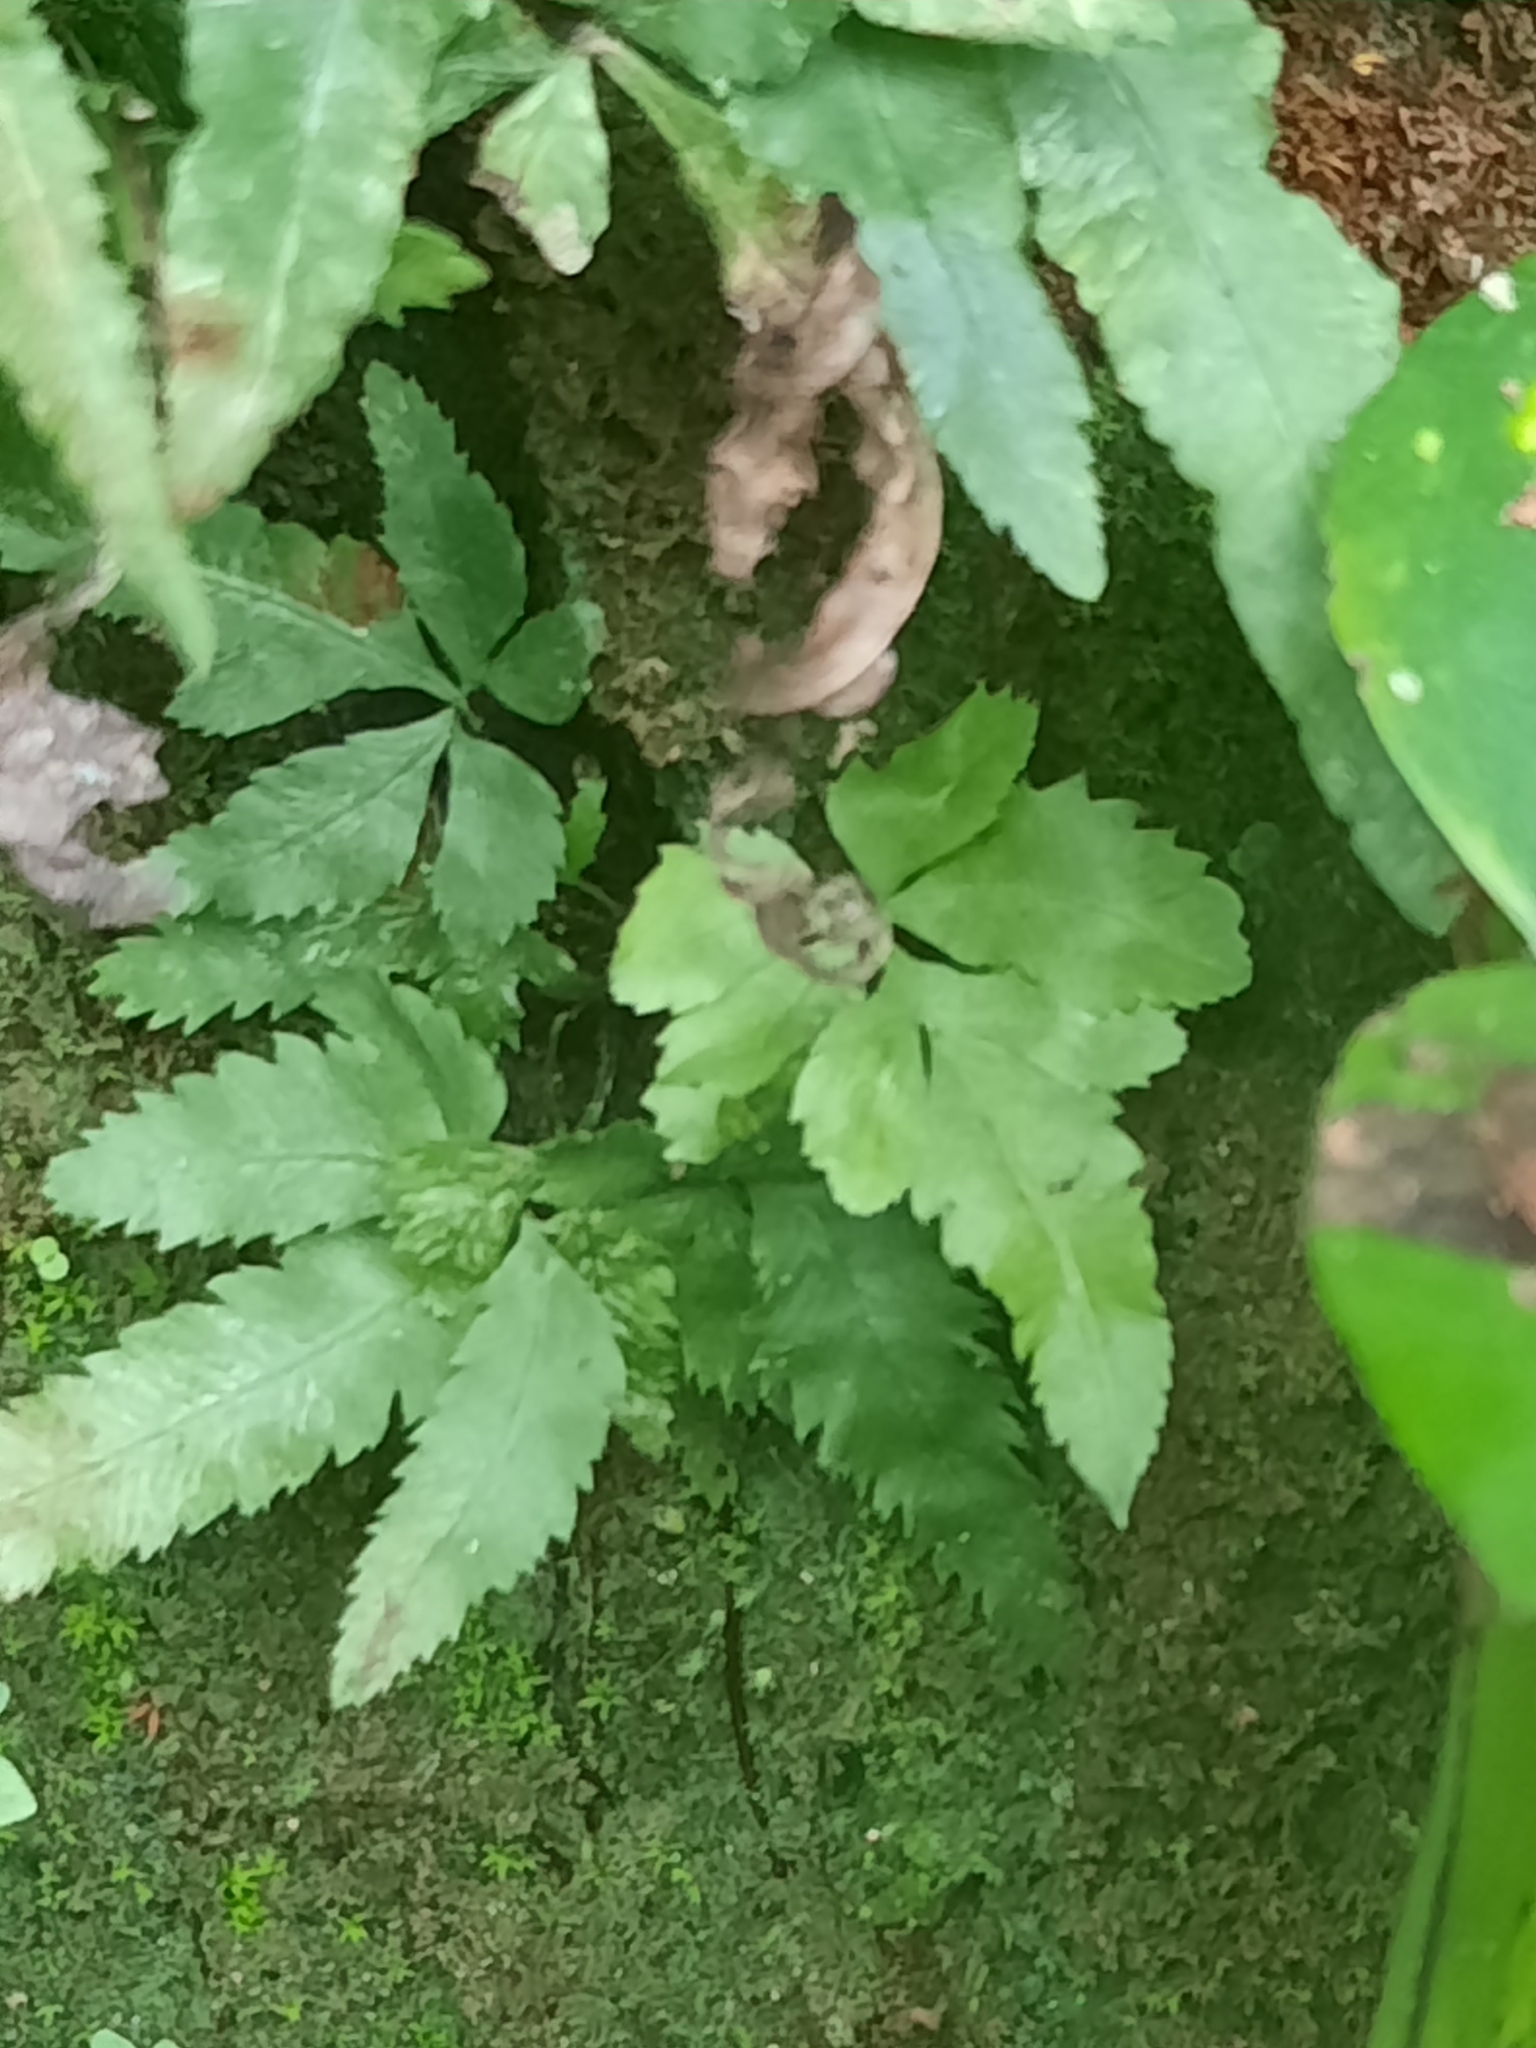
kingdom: Plantae
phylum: Tracheophyta
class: Polypodiopsida
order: Polypodiales
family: Pteridaceae
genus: Pteris
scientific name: Pteris multifida
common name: Spider brake
